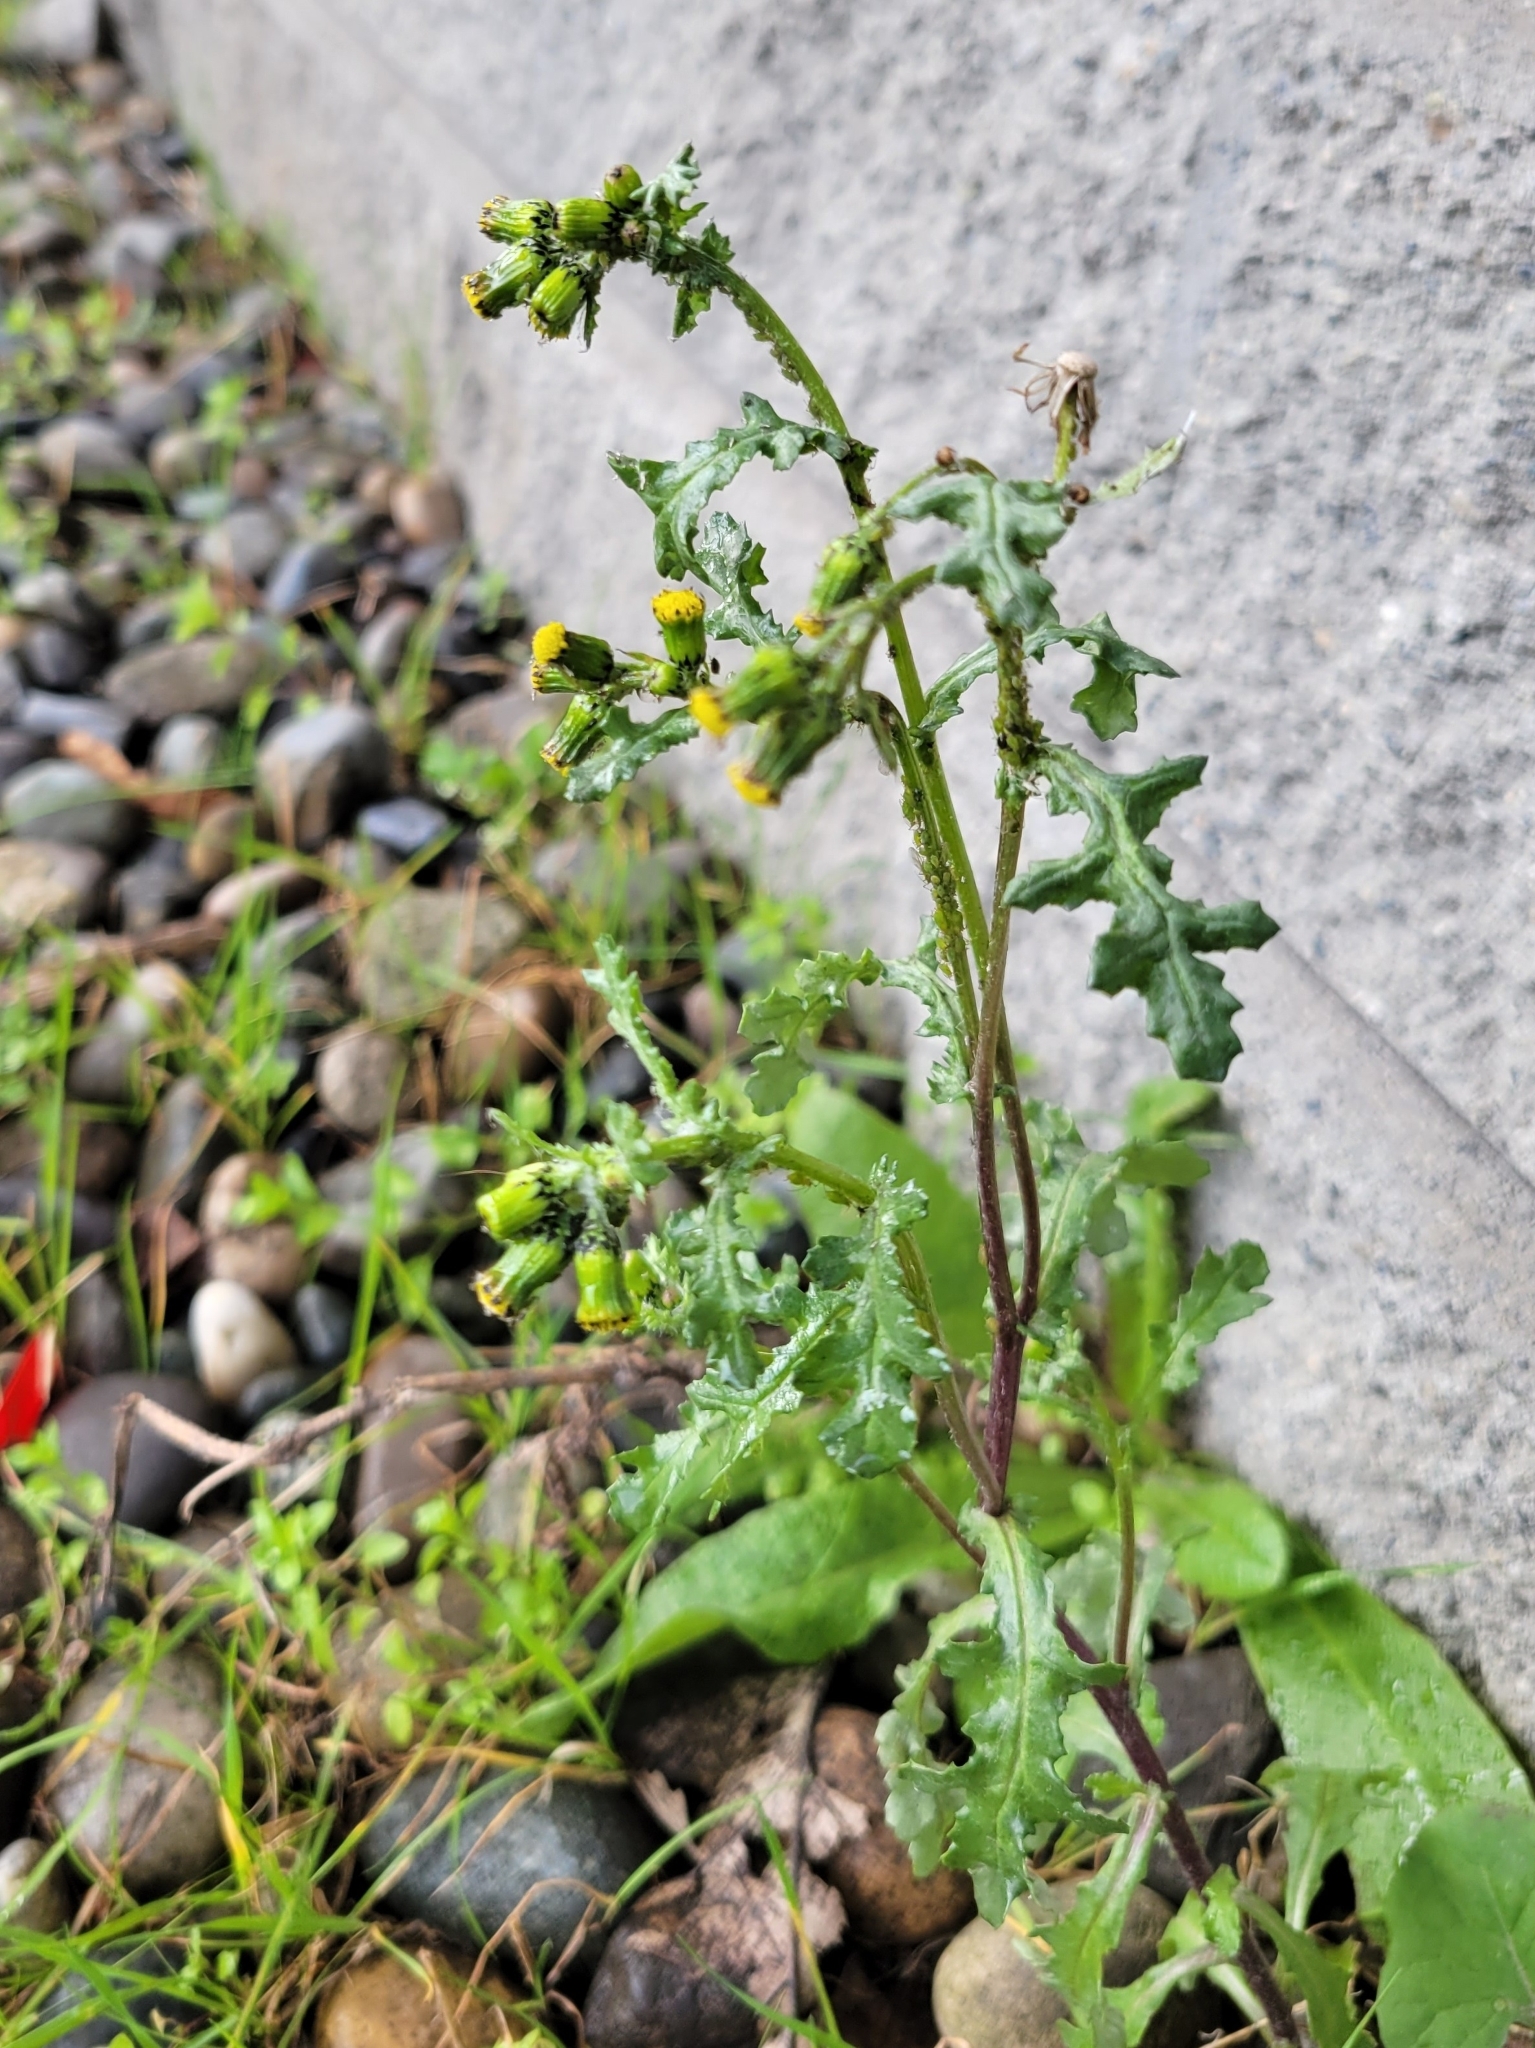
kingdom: Plantae
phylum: Tracheophyta
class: Magnoliopsida
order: Asterales
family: Asteraceae
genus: Senecio
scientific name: Senecio vulgaris
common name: Old-man-in-the-spring
